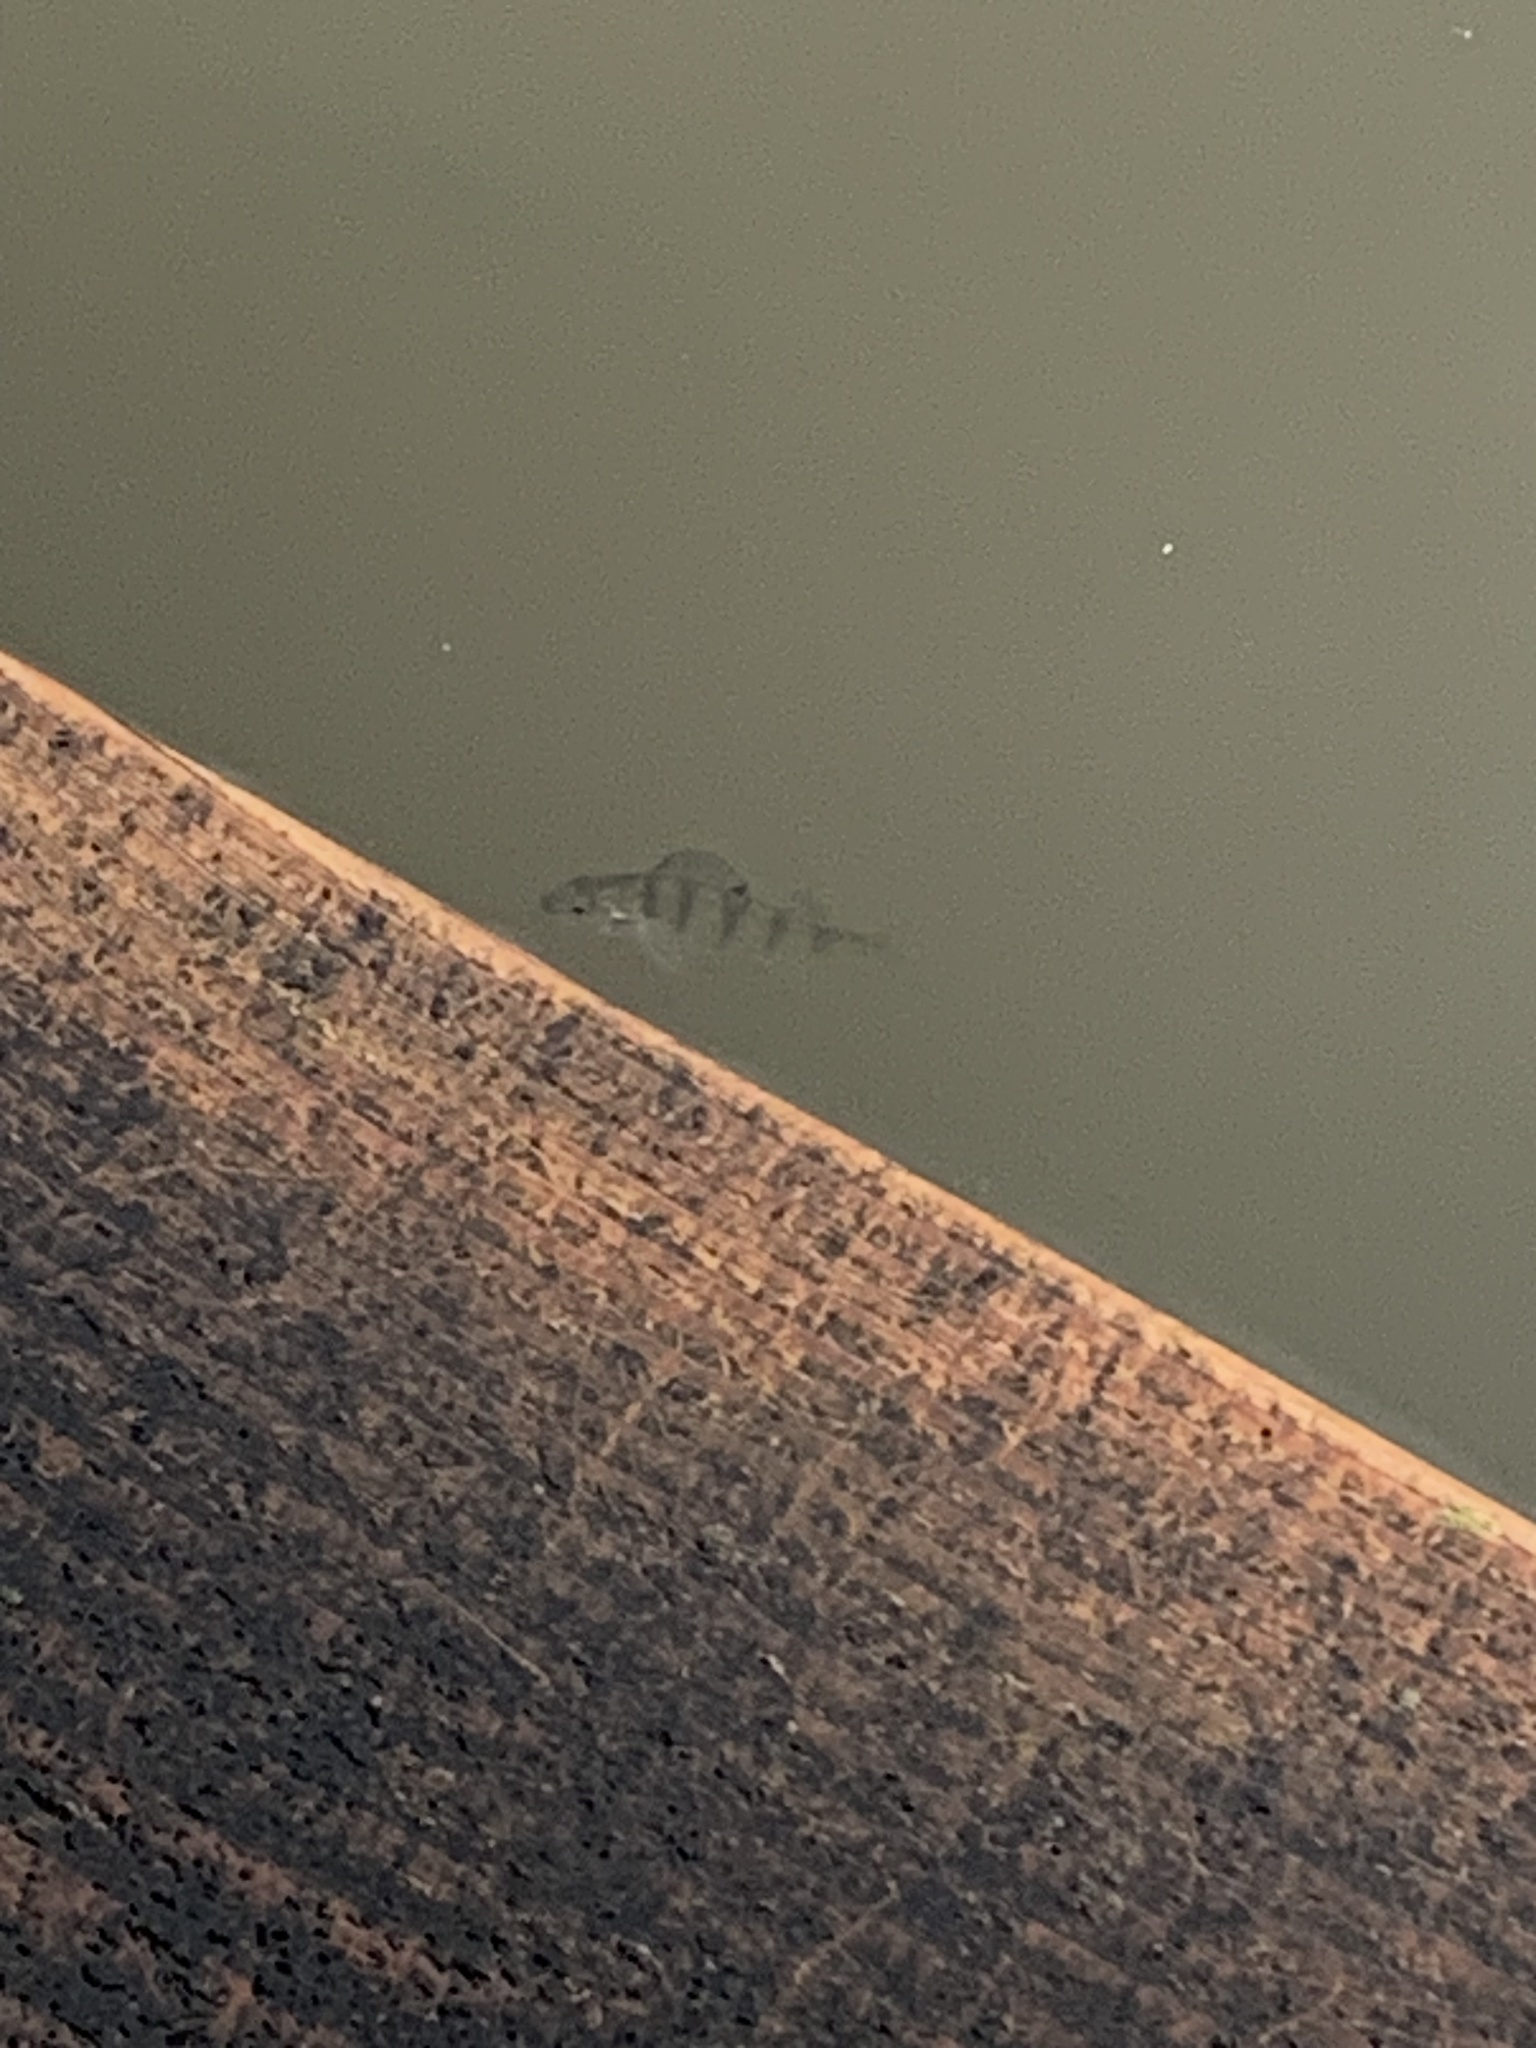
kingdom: Animalia
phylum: Chordata
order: Perciformes
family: Percidae
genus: Perca
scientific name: Perca fluviatilis
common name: Perch
